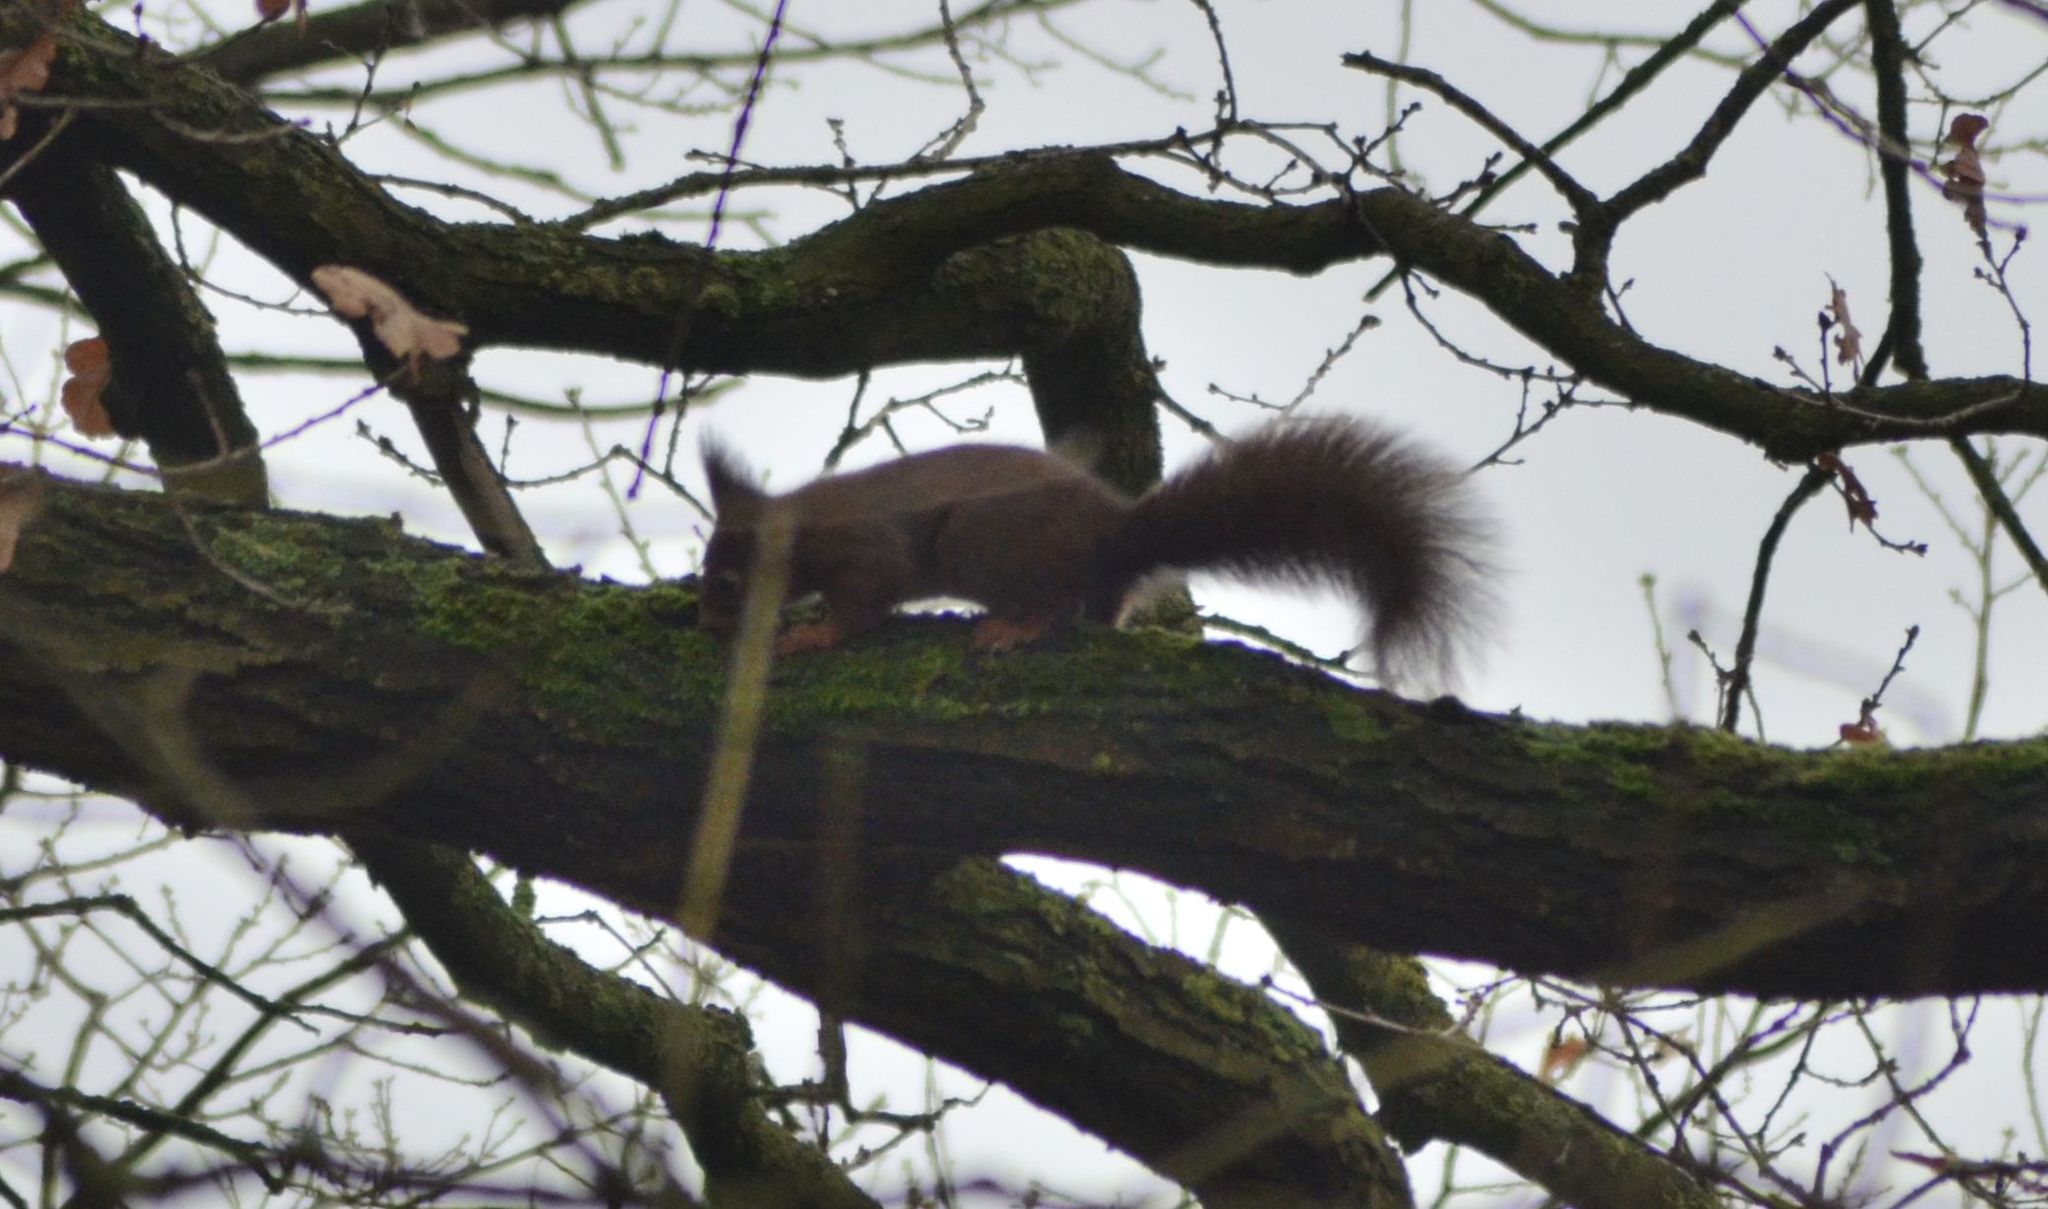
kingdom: Animalia
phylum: Chordata
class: Mammalia
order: Rodentia
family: Sciuridae
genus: Sciurus
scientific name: Sciurus vulgaris
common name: Eurasian red squirrel
